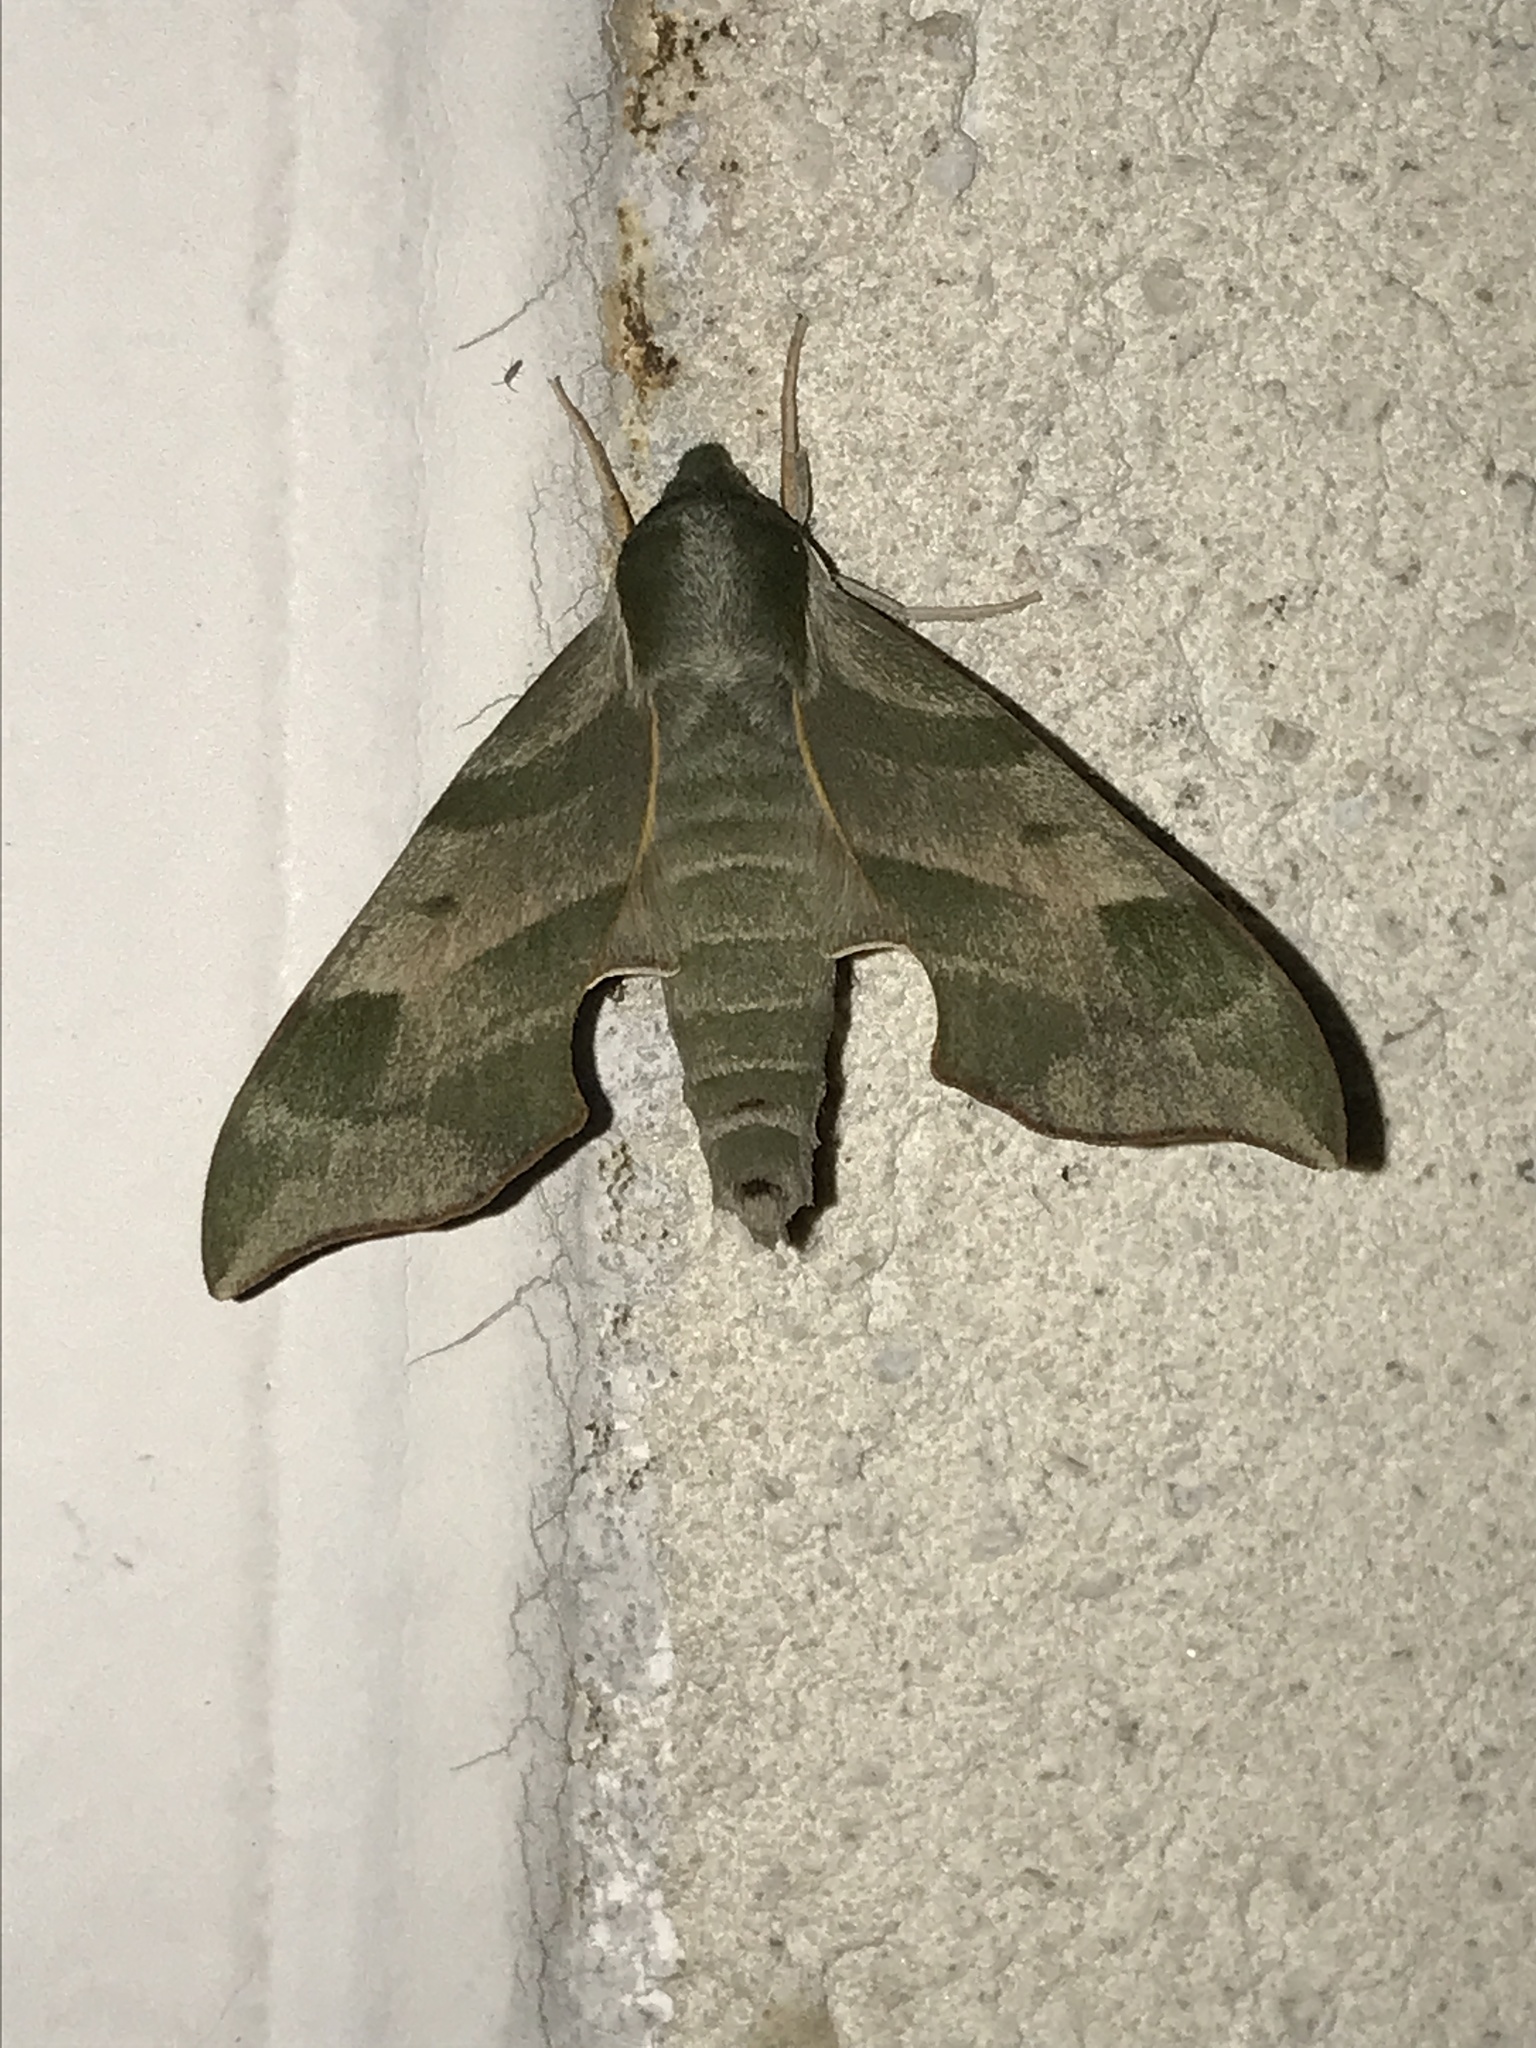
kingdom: Animalia
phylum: Arthropoda
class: Insecta
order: Lepidoptera
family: Sphingidae
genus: Darapsa
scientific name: Darapsa myron
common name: Hog sphinx
